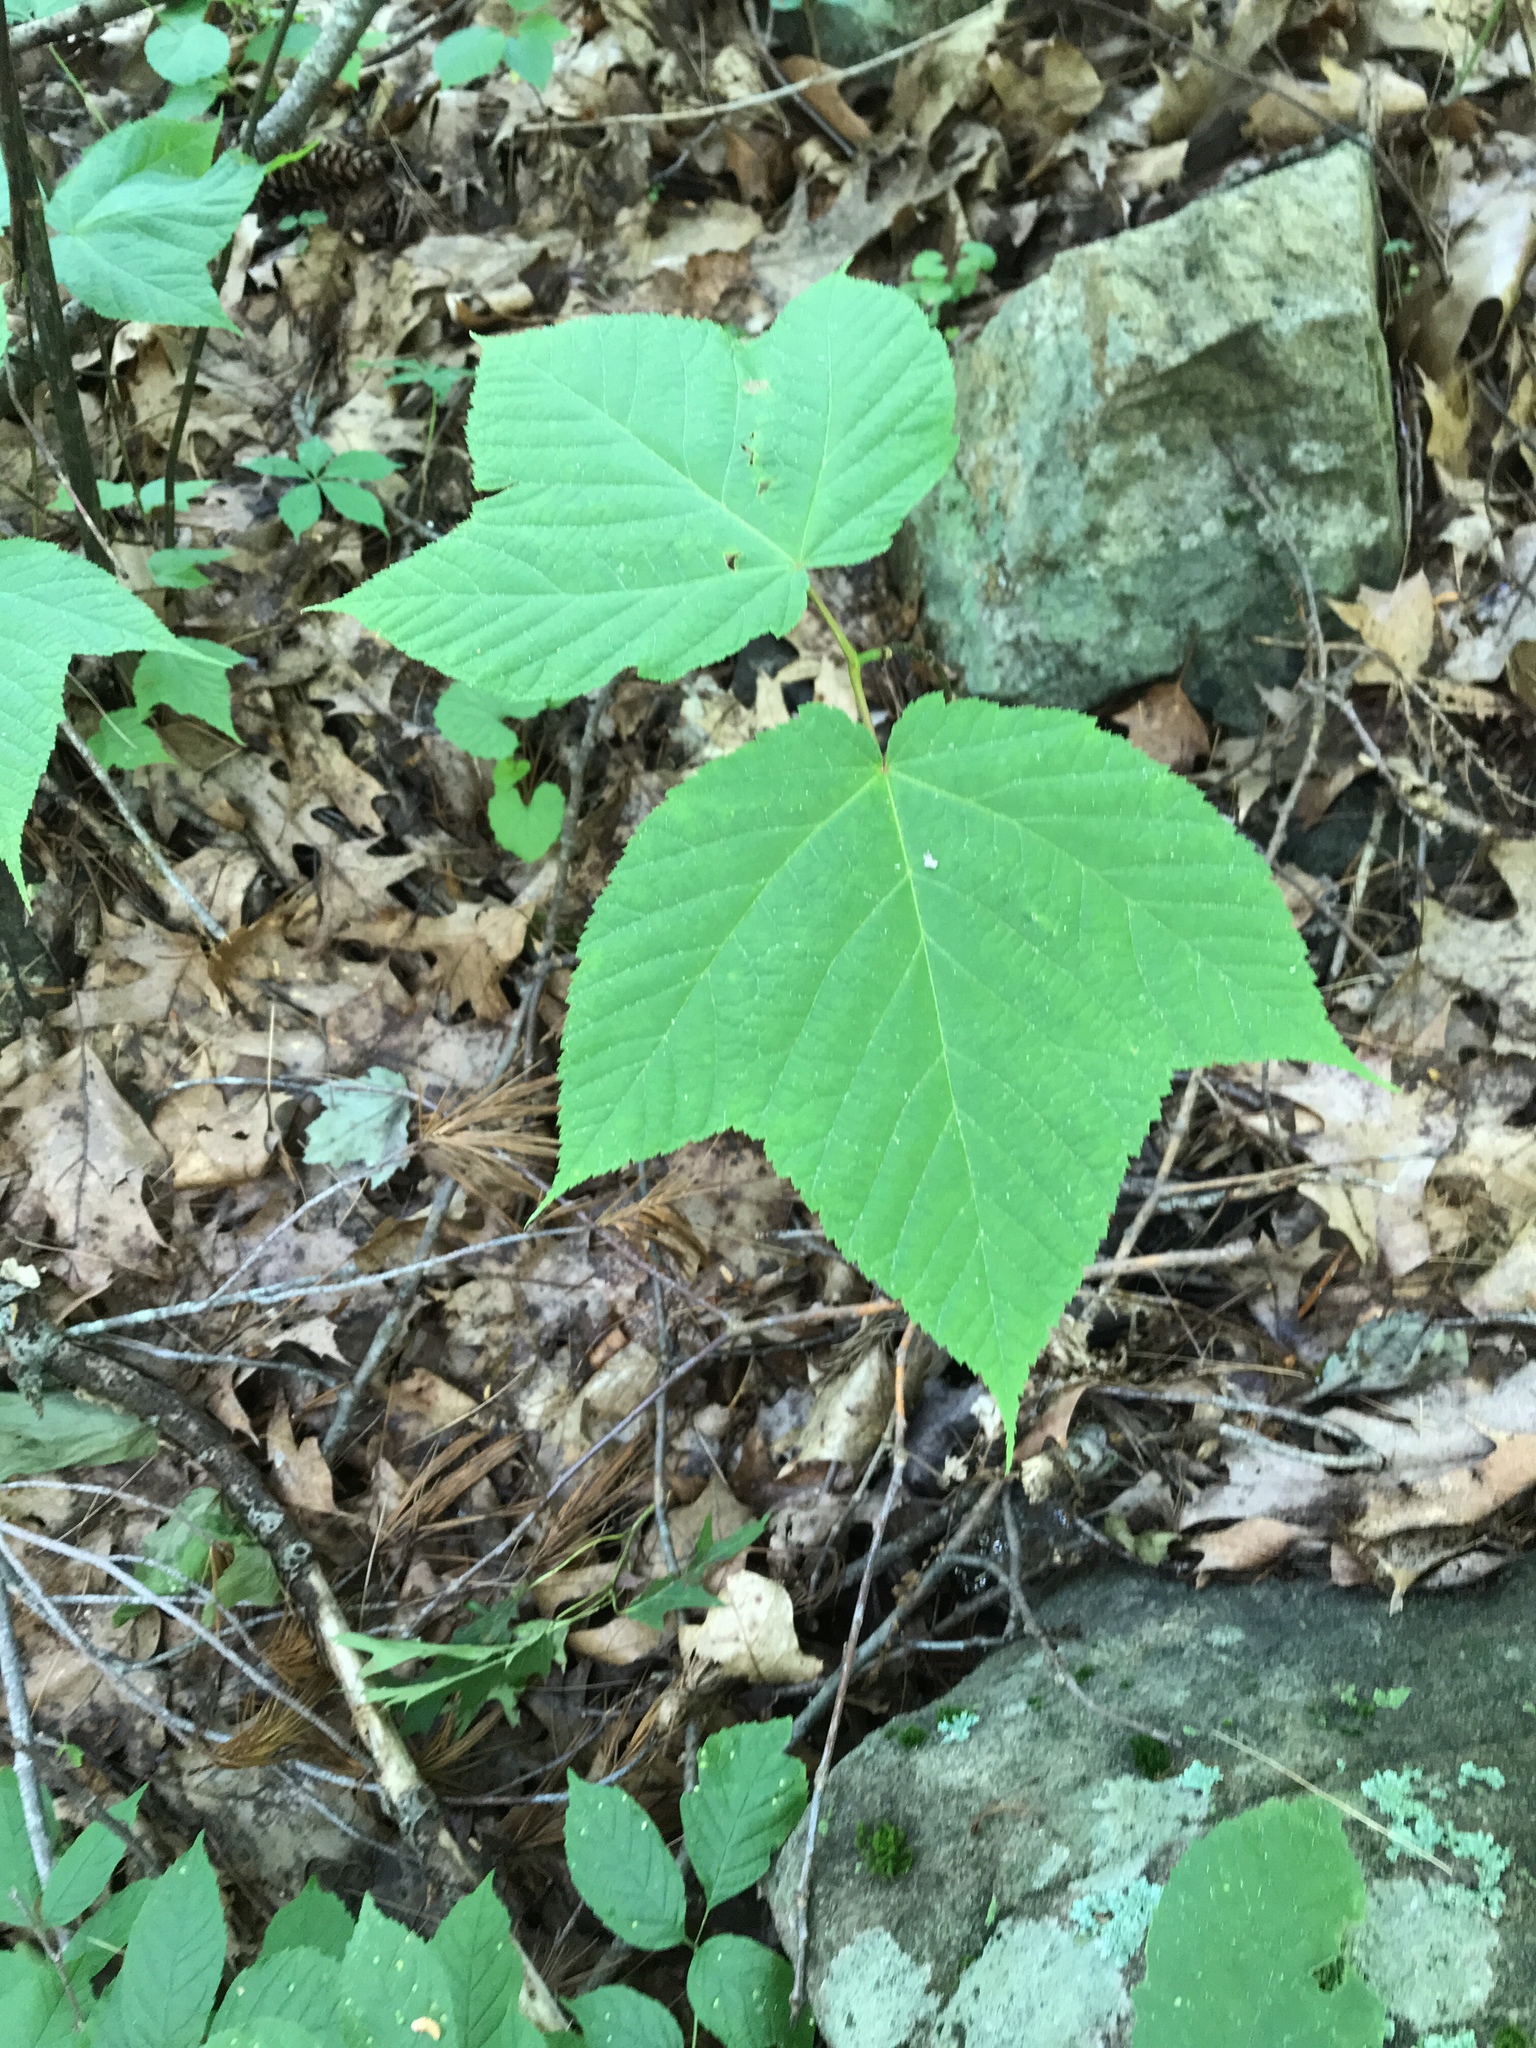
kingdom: Plantae
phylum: Tracheophyta
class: Magnoliopsida
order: Sapindales
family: Sapindaceae
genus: Acer
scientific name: Acer pensylvanicum
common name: Moosewood
